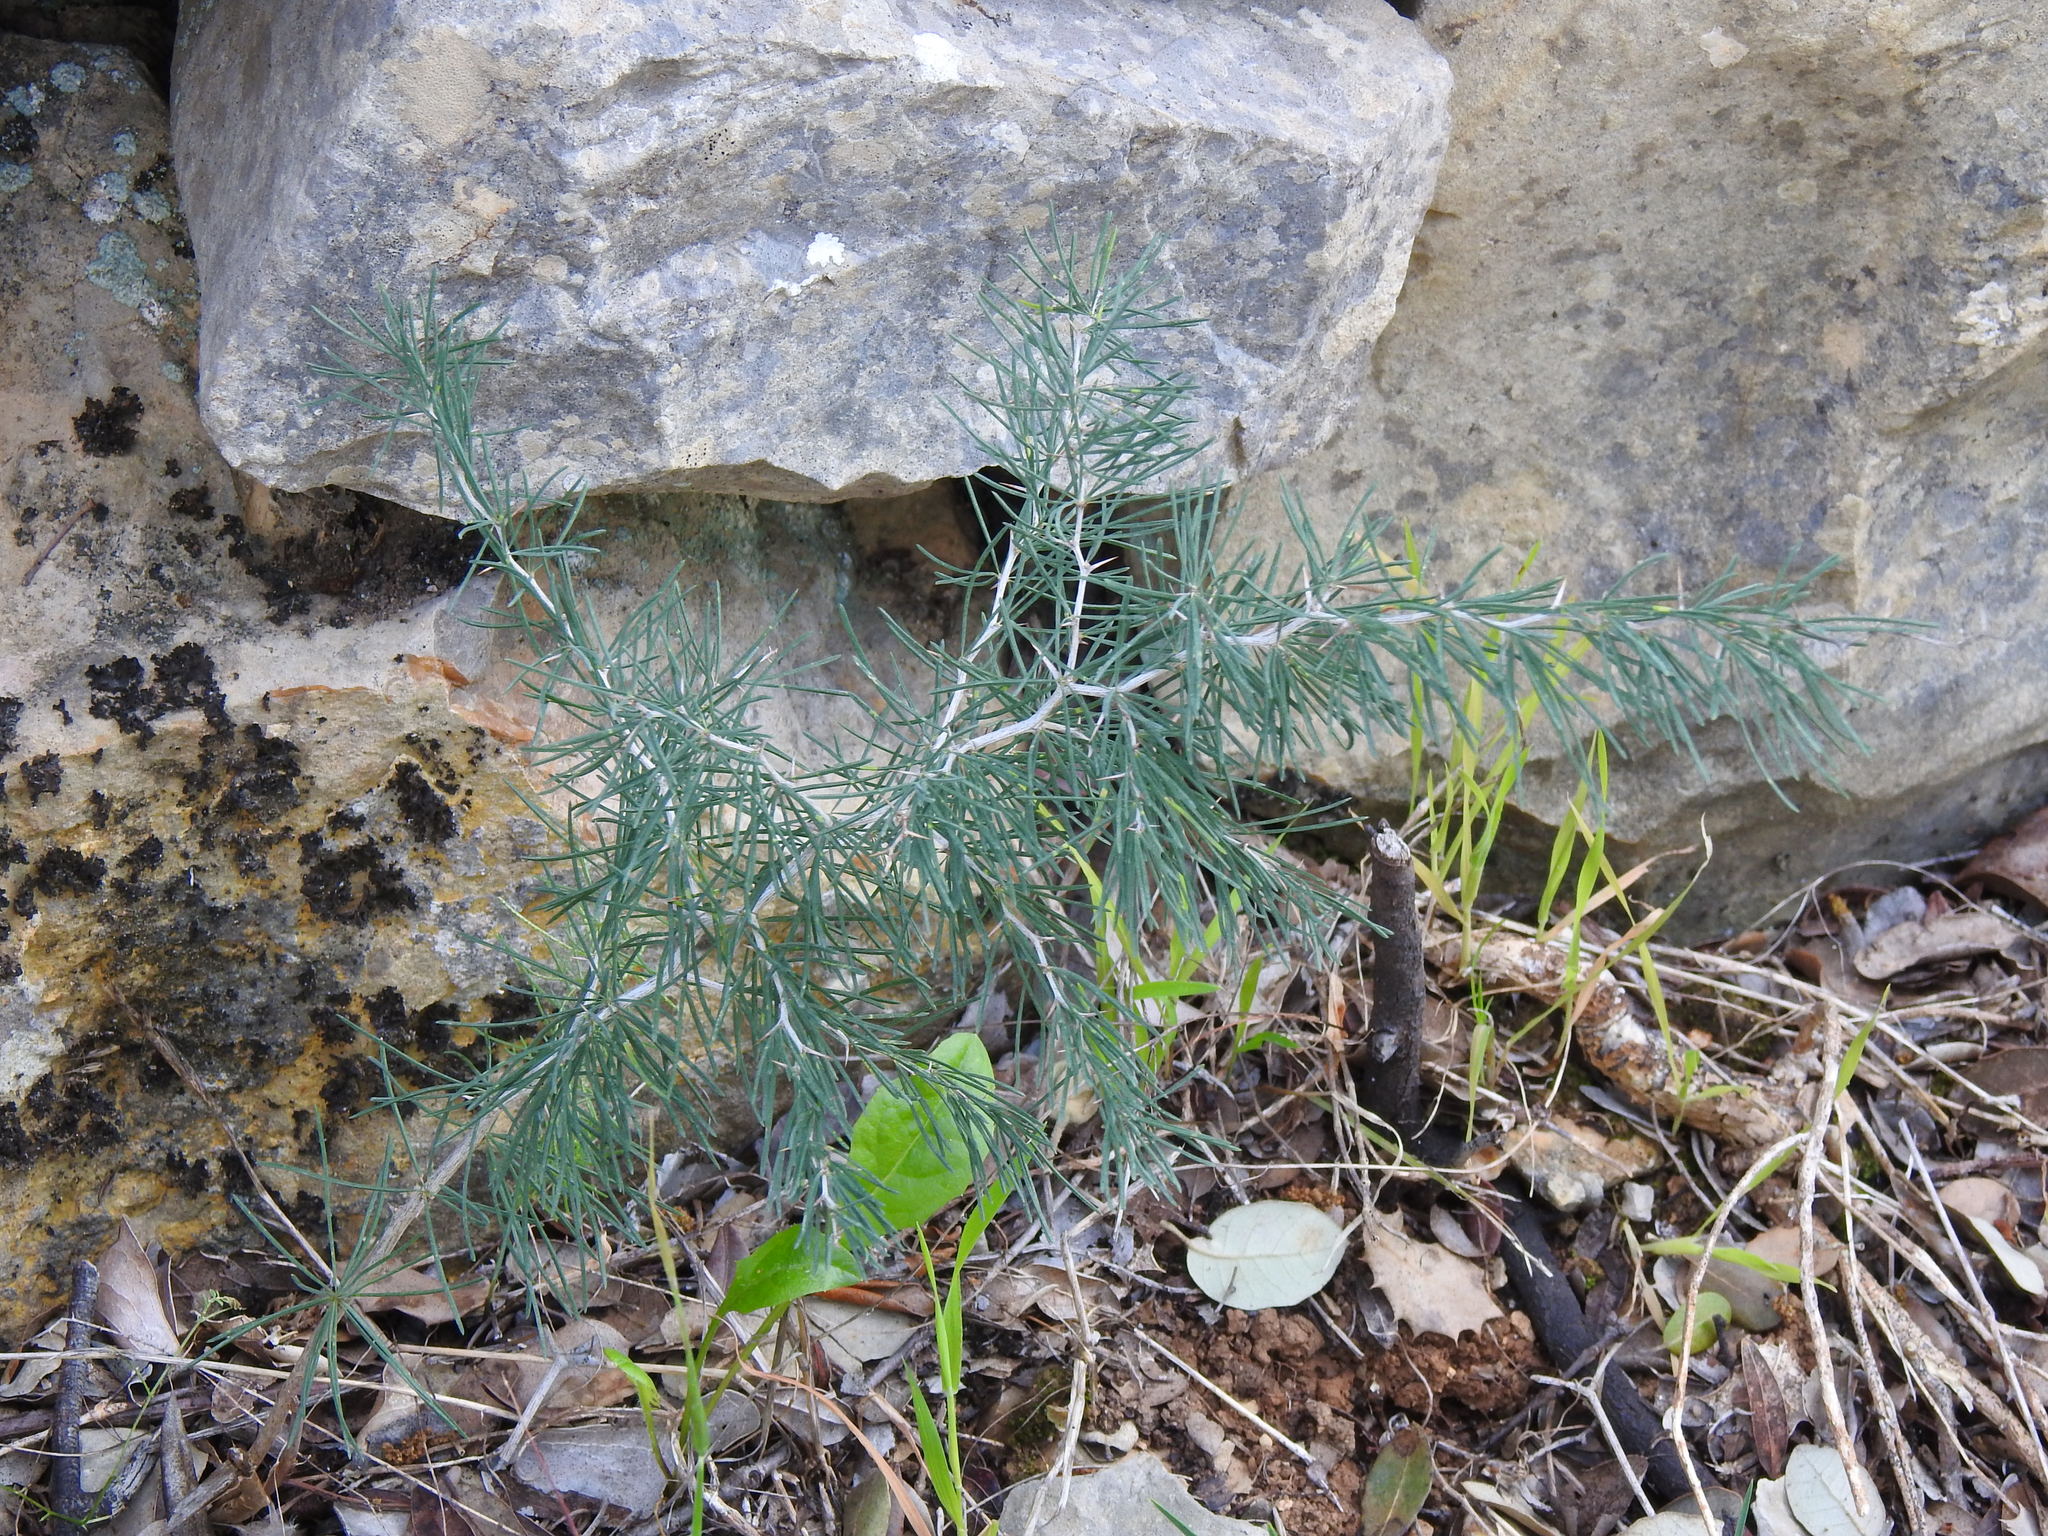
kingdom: Plantae
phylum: Tracheophyta
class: Liliopsida
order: Asparagales
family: Asparagaceae
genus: Asparagus
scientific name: Asparagus albus
